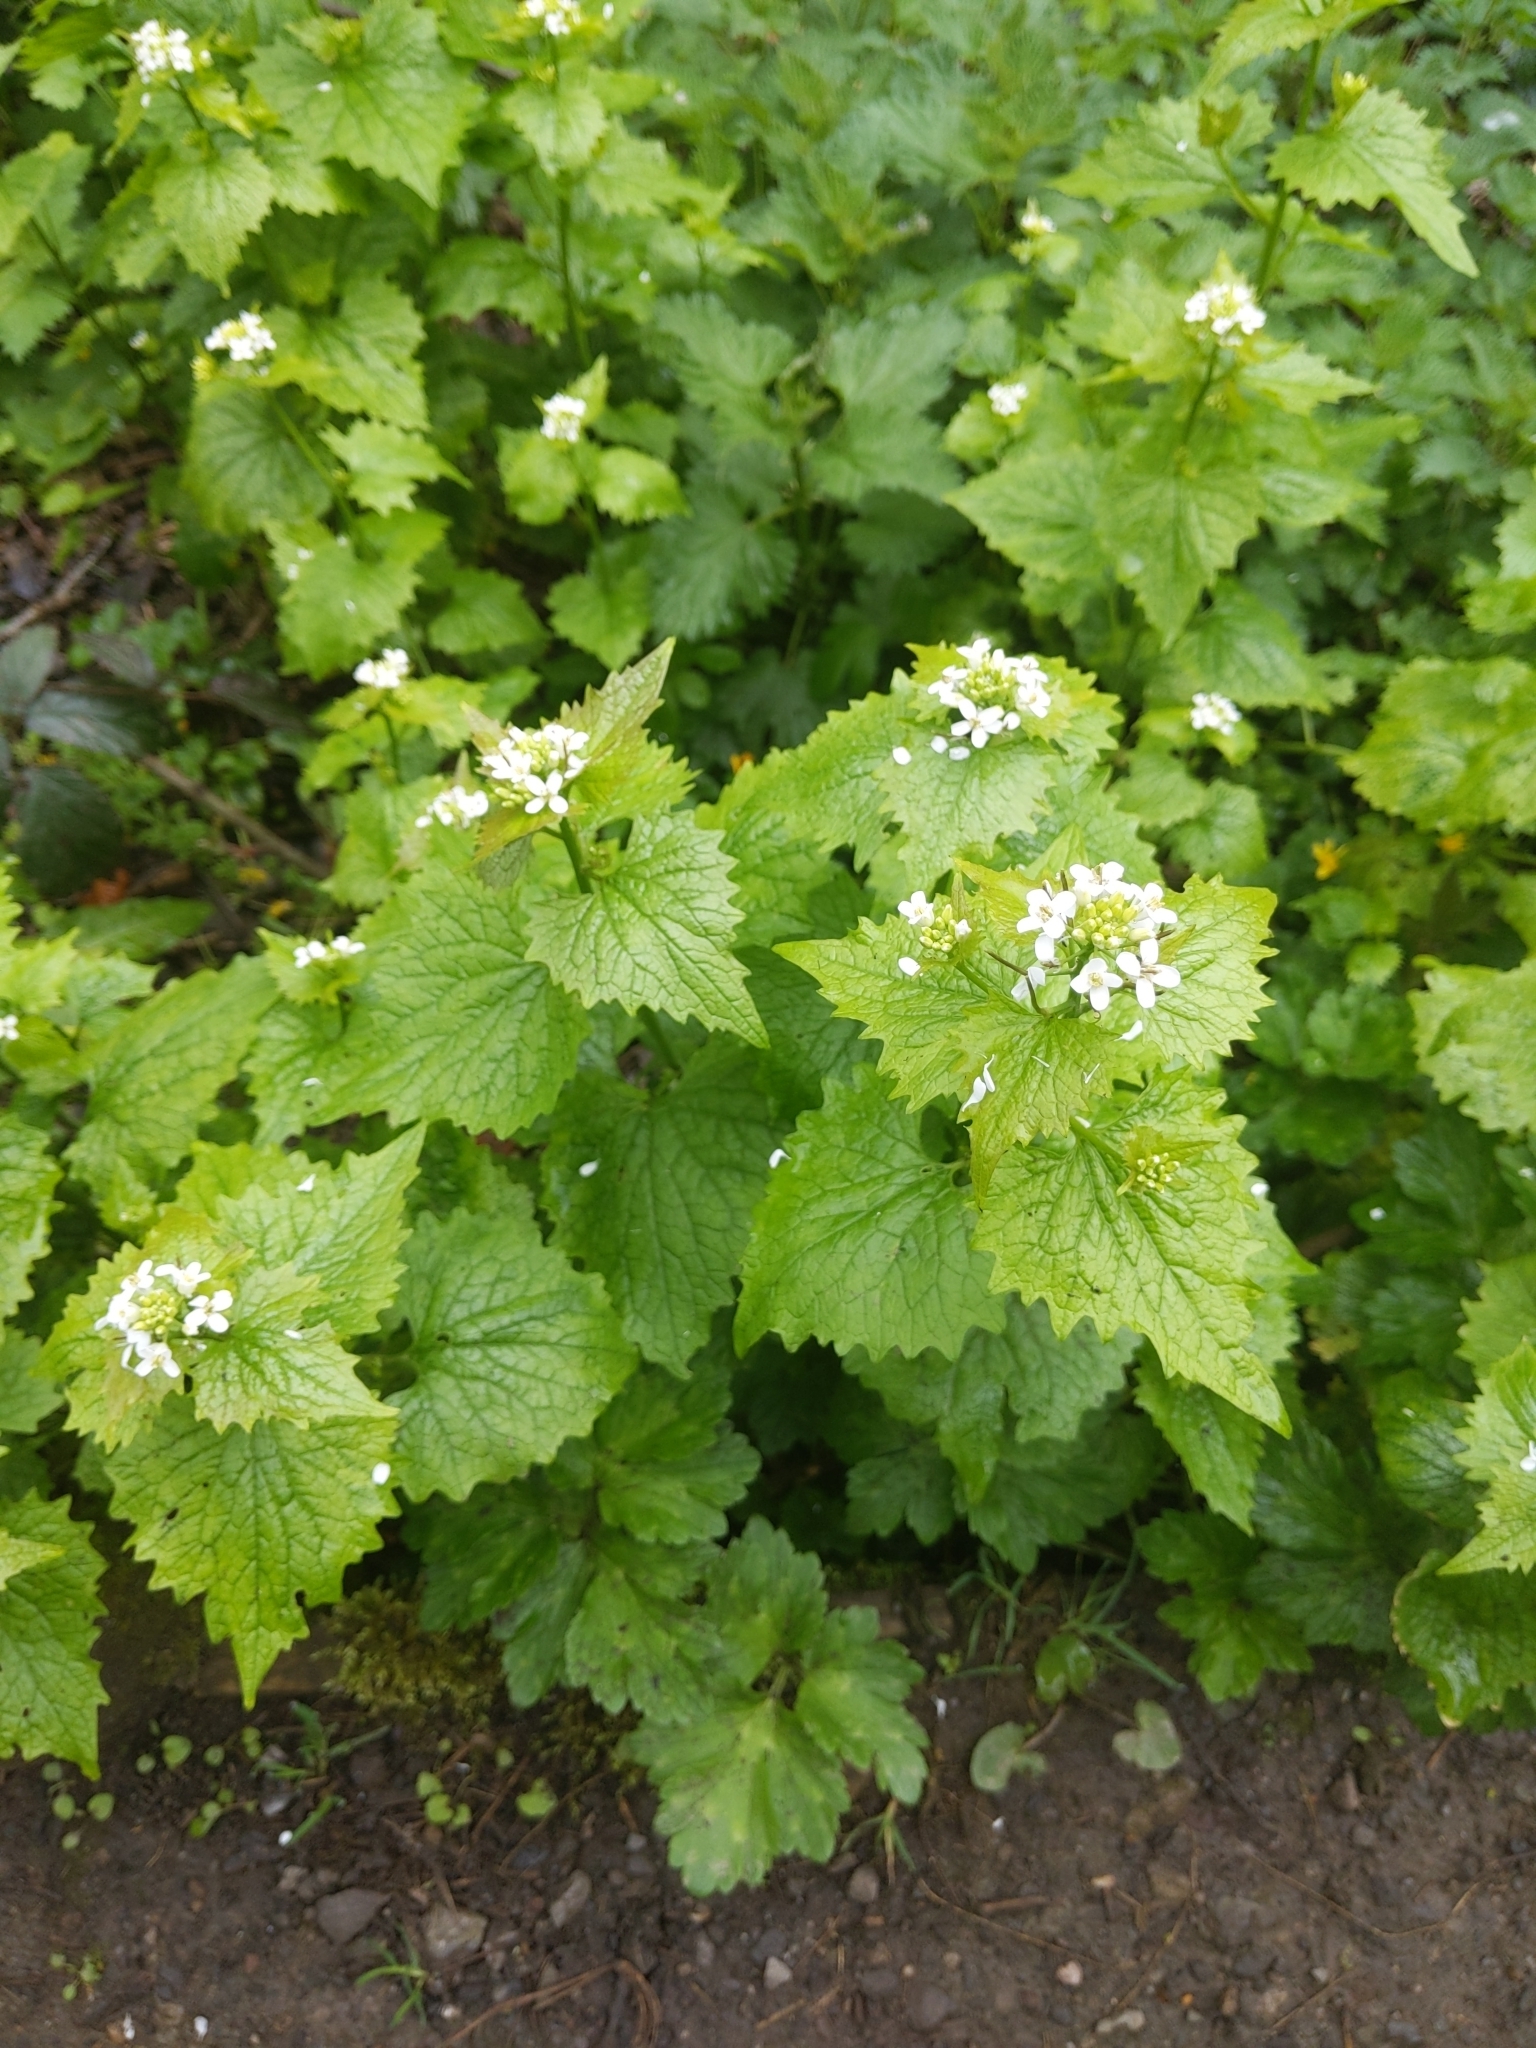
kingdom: Plantae
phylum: Tracheophyta
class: Magnoliopsida
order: Brassicales
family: Brassicaceae
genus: Alliaria
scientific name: Alliaria petiolata
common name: Garlic mustard
